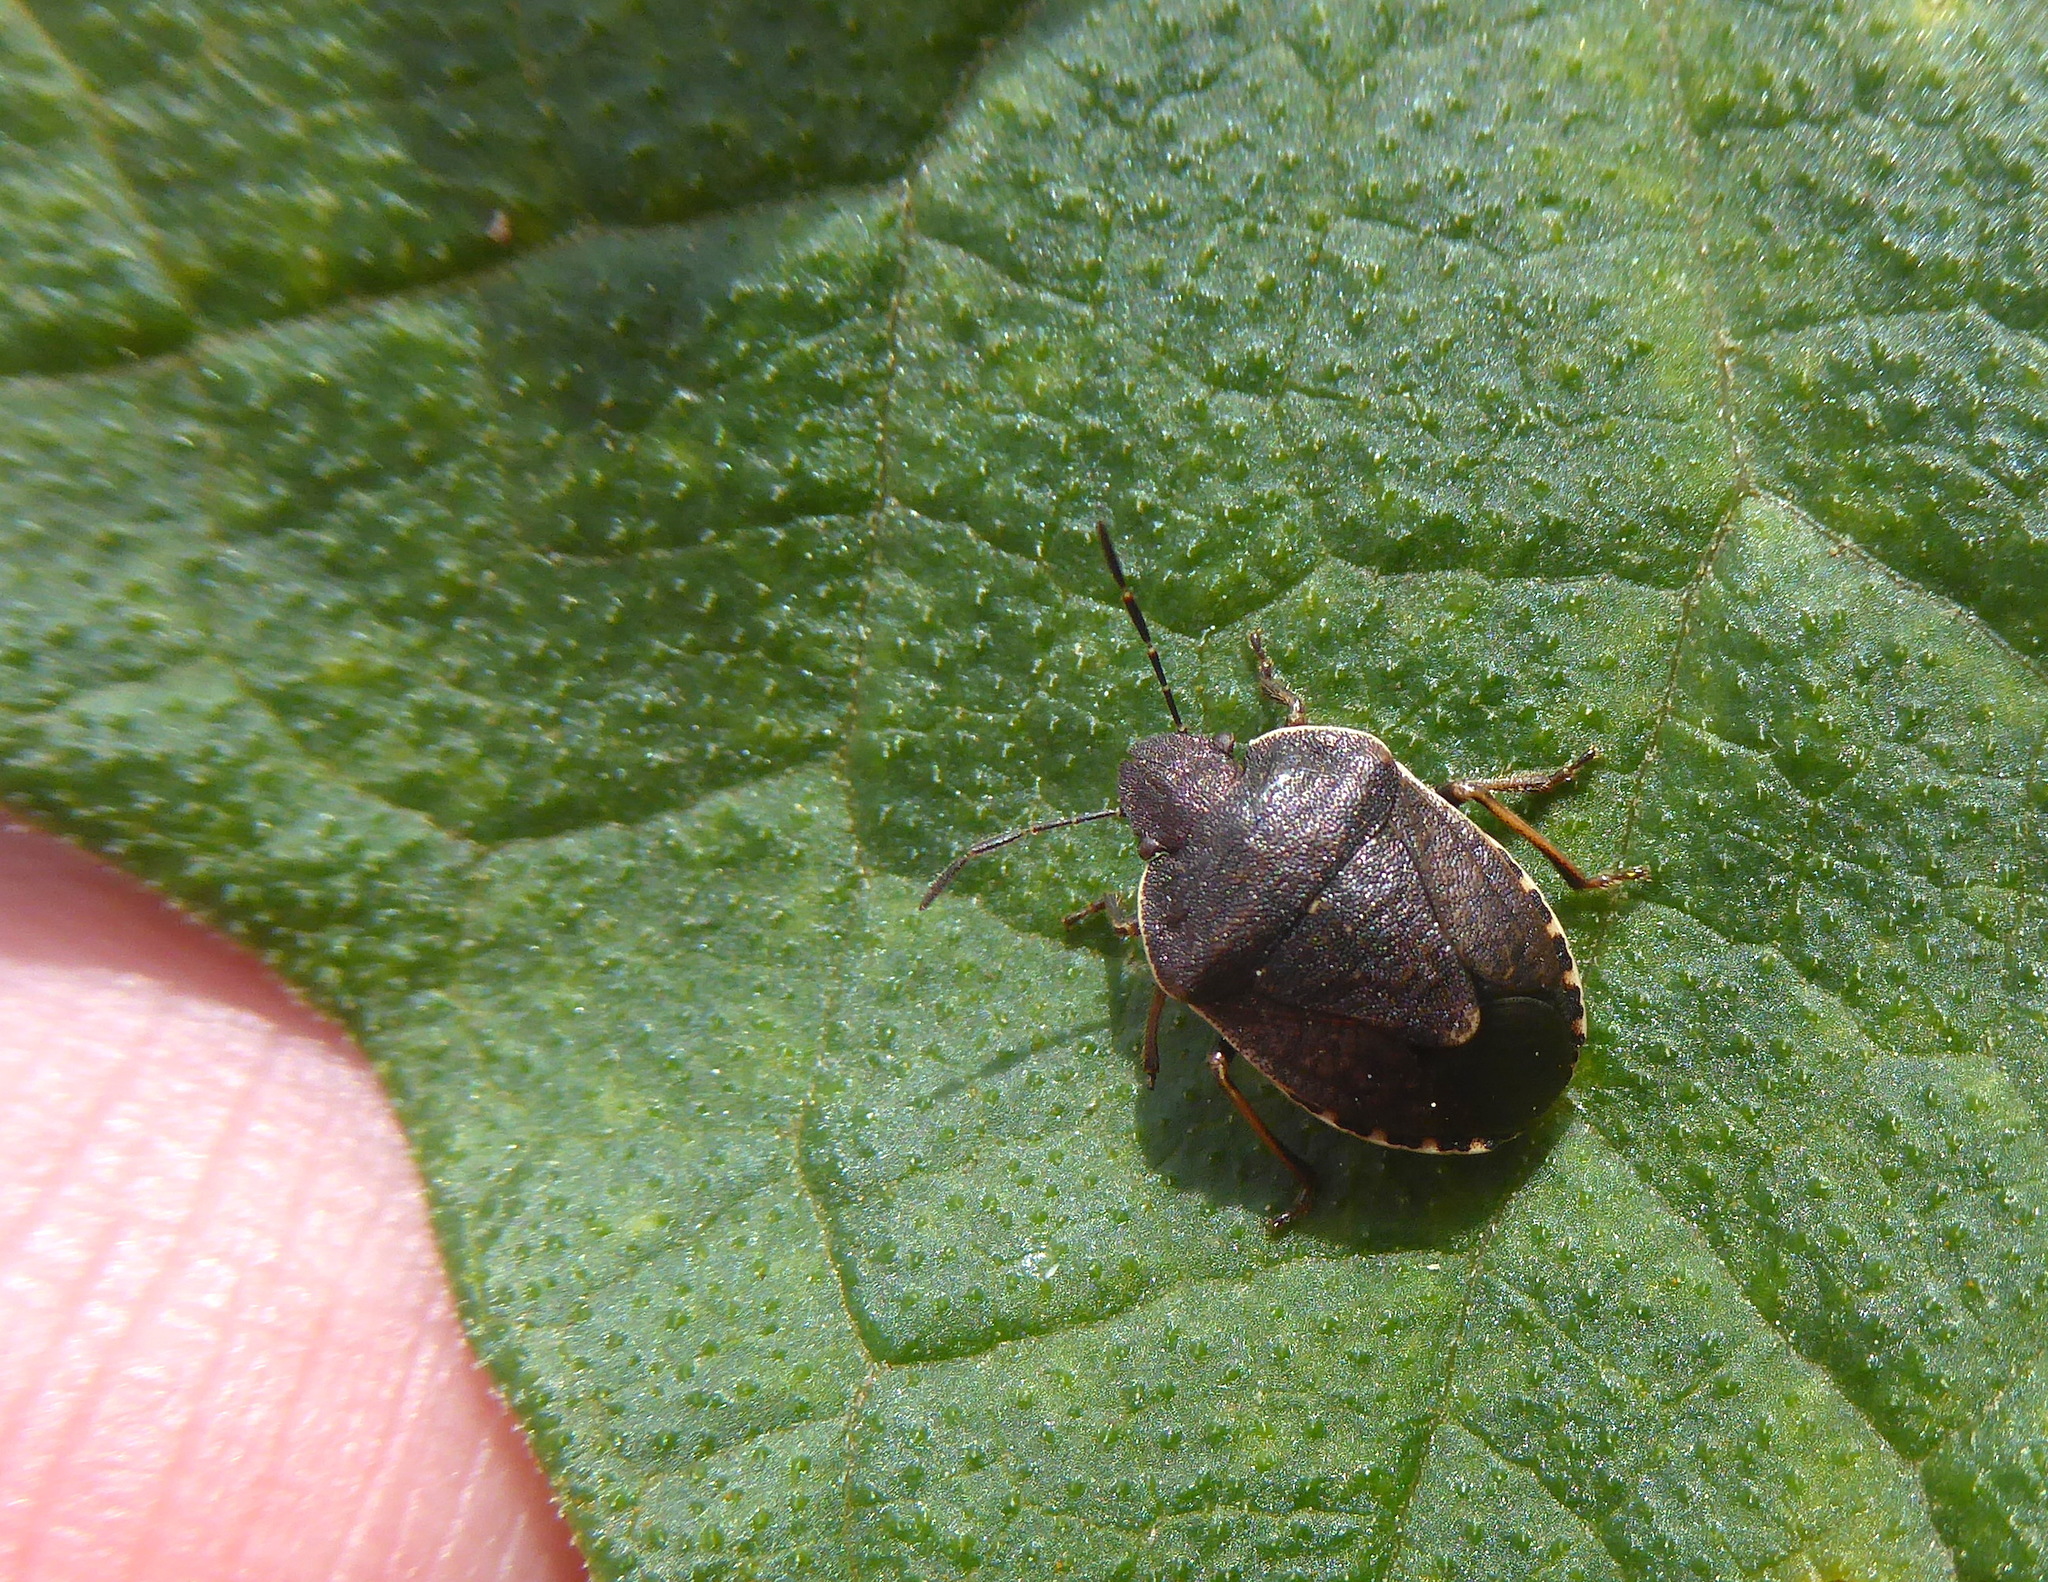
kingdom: Animalia
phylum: Arthropoda
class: Insecta
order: Hemiptera
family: Pentatomidae
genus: Holcostethus
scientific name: Holcostethus tristis
